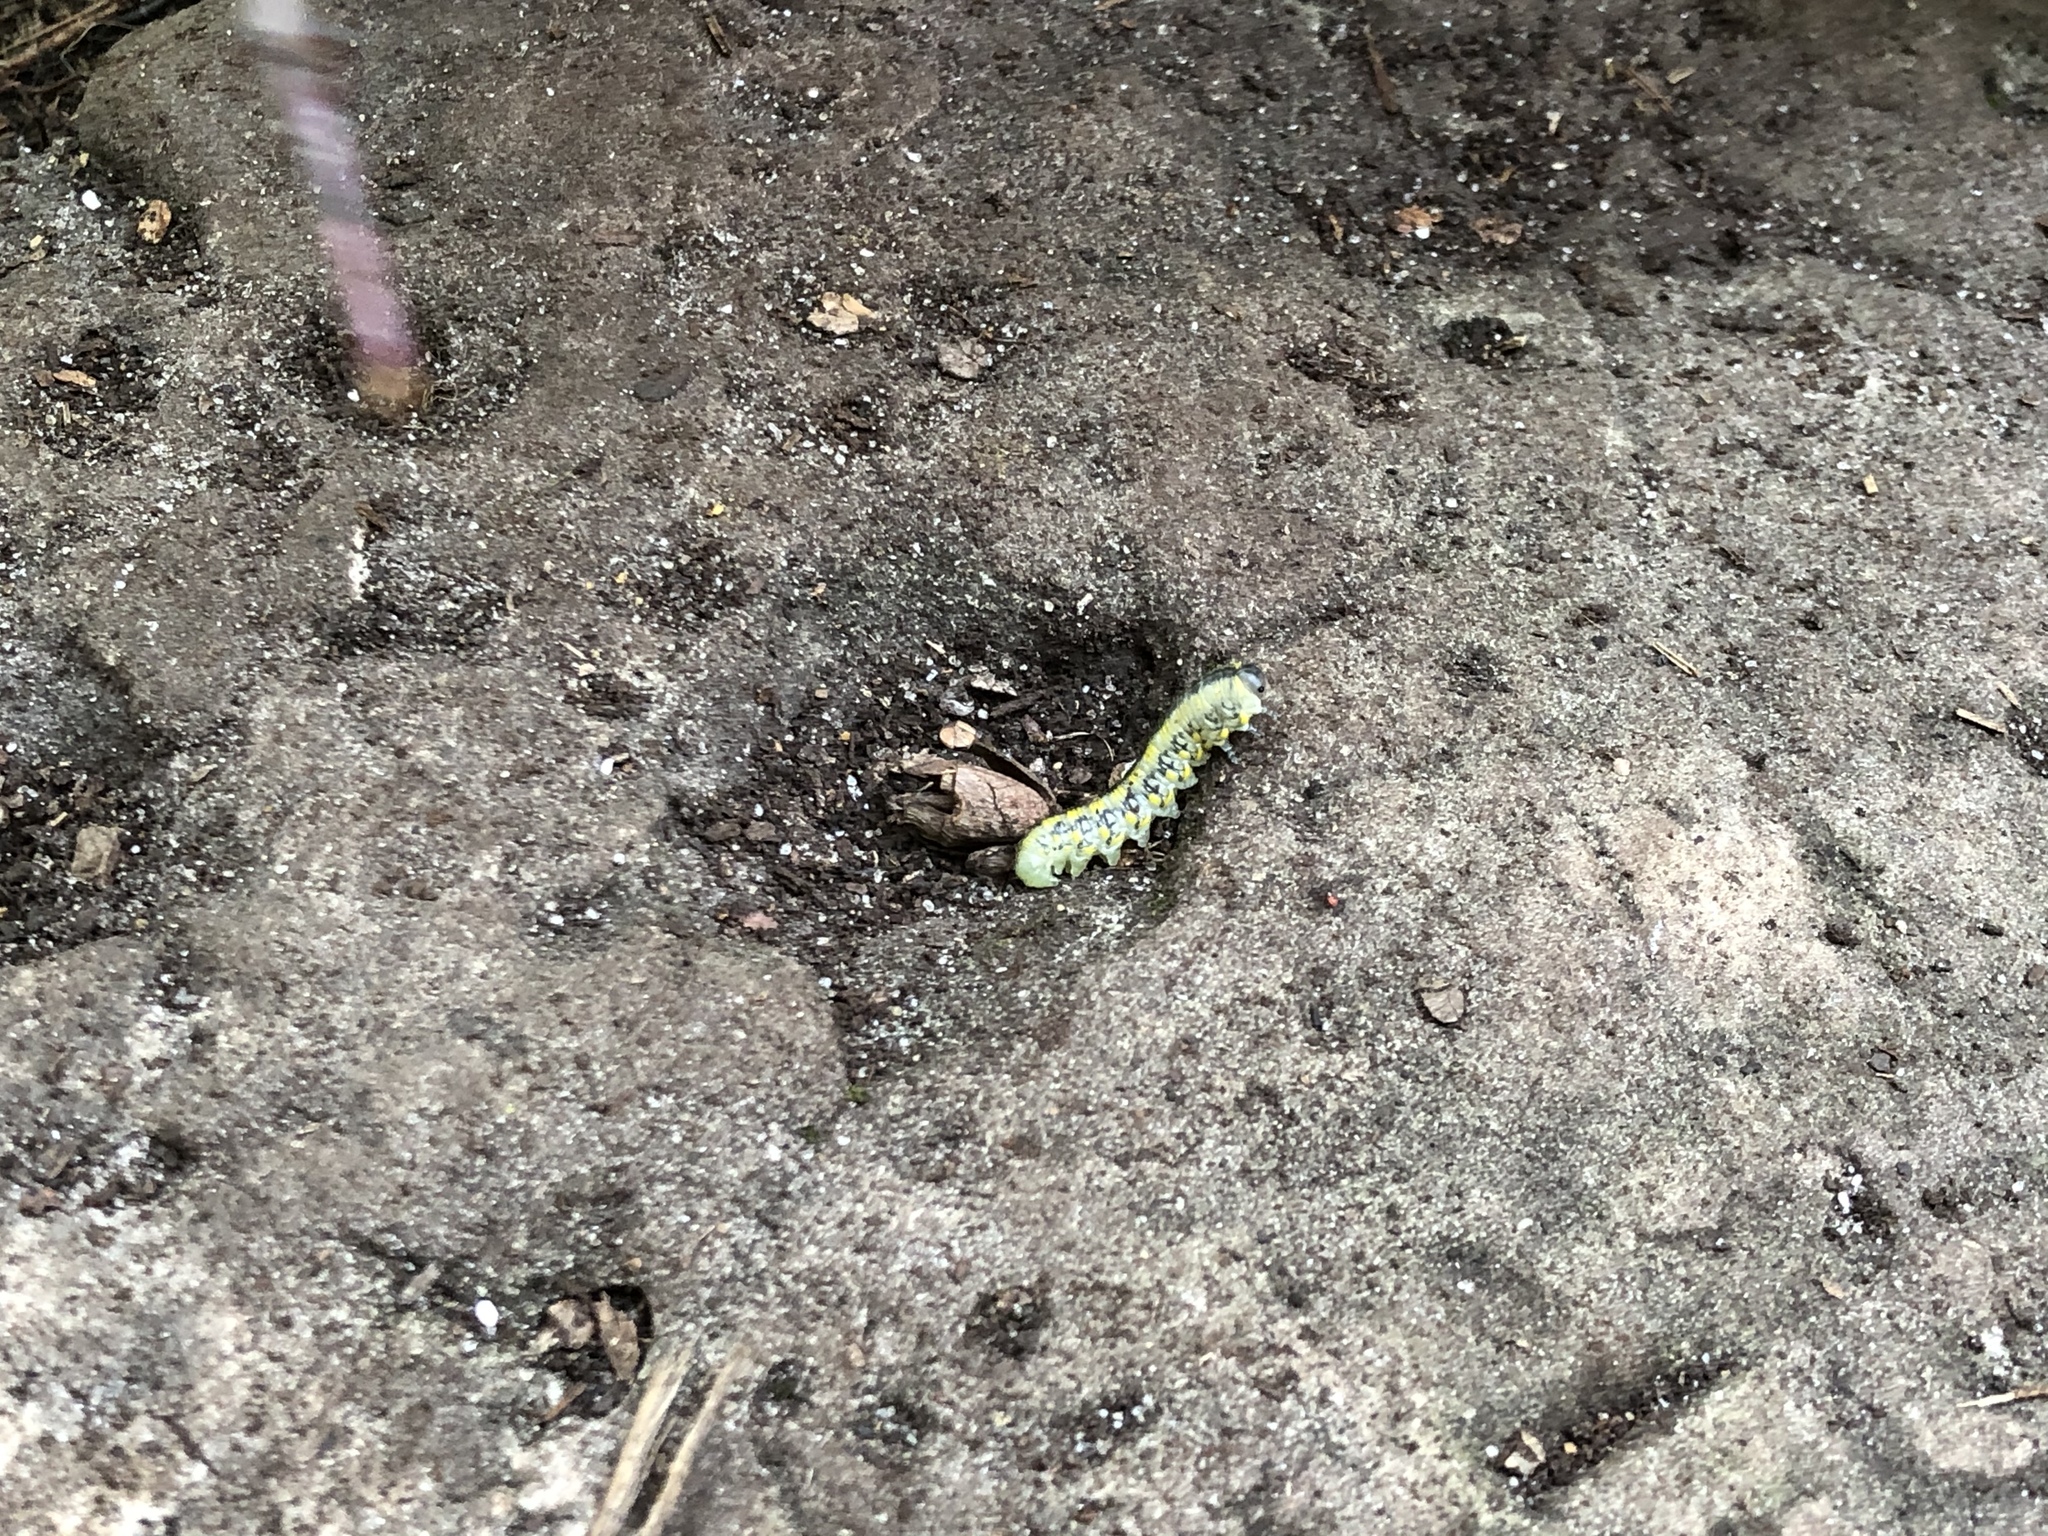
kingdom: Animalia
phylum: Arthropoda
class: Insecta
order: Hymenoptera
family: Diprionidae
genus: Diprion
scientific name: Diprion similis
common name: Pine sawfly
